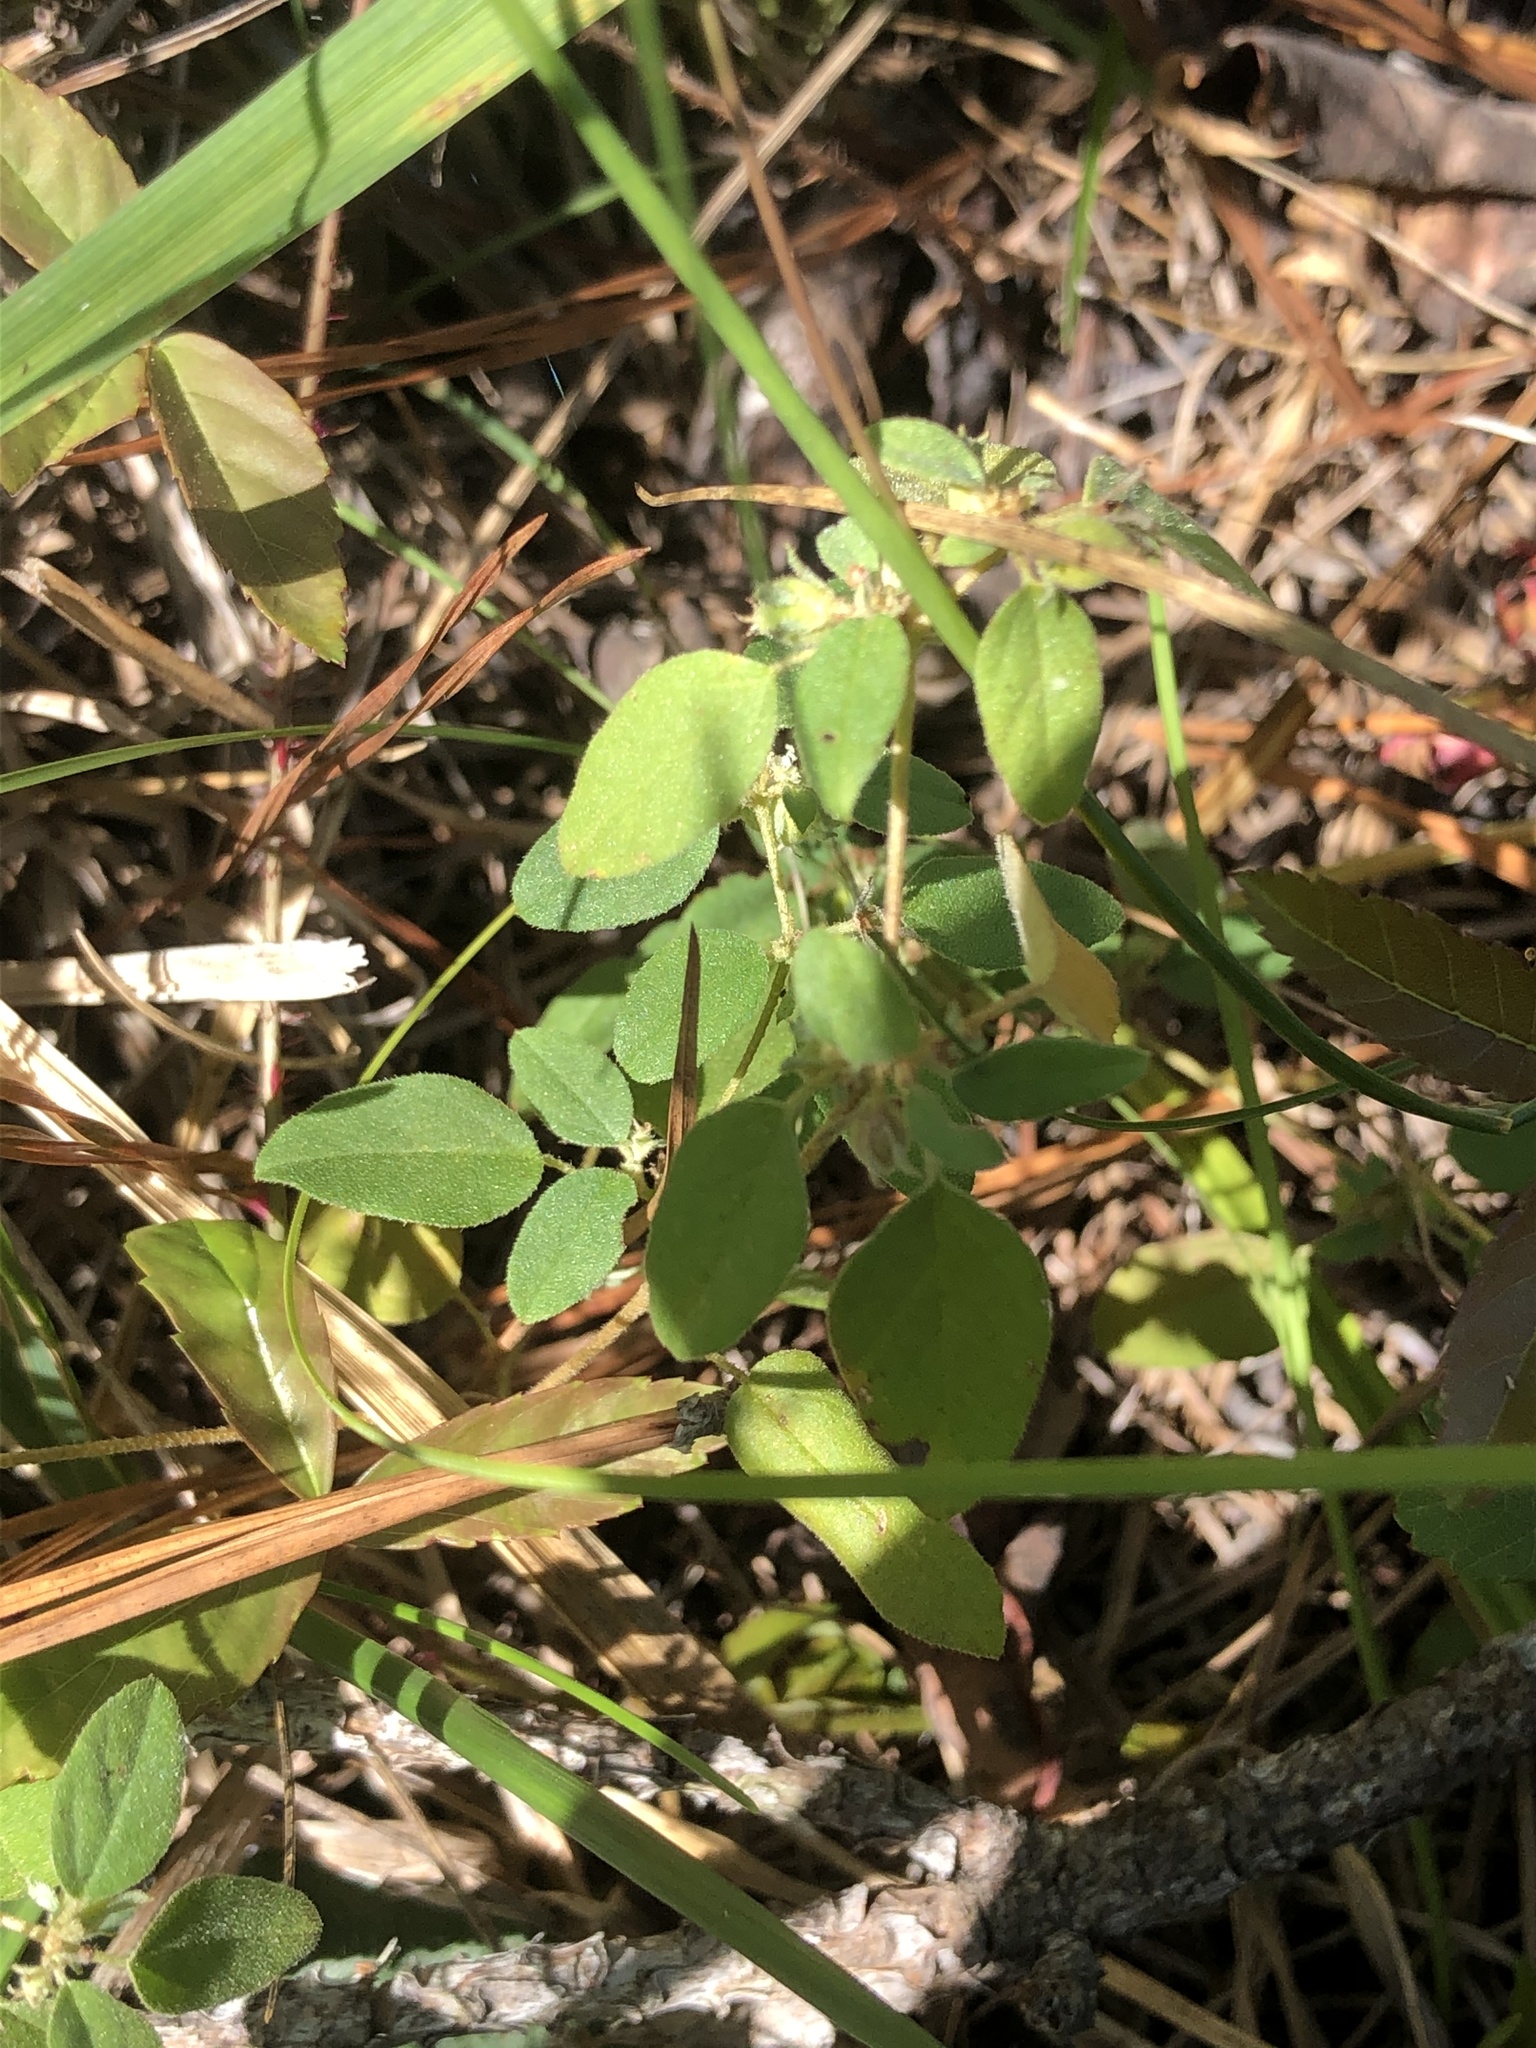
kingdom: Plantae
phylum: Tracheophyta
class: Magnoliopsida
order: Malpighiales
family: Euphorbiaceae
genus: Croton
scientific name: Croton monanthogynus
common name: One-seed croton
